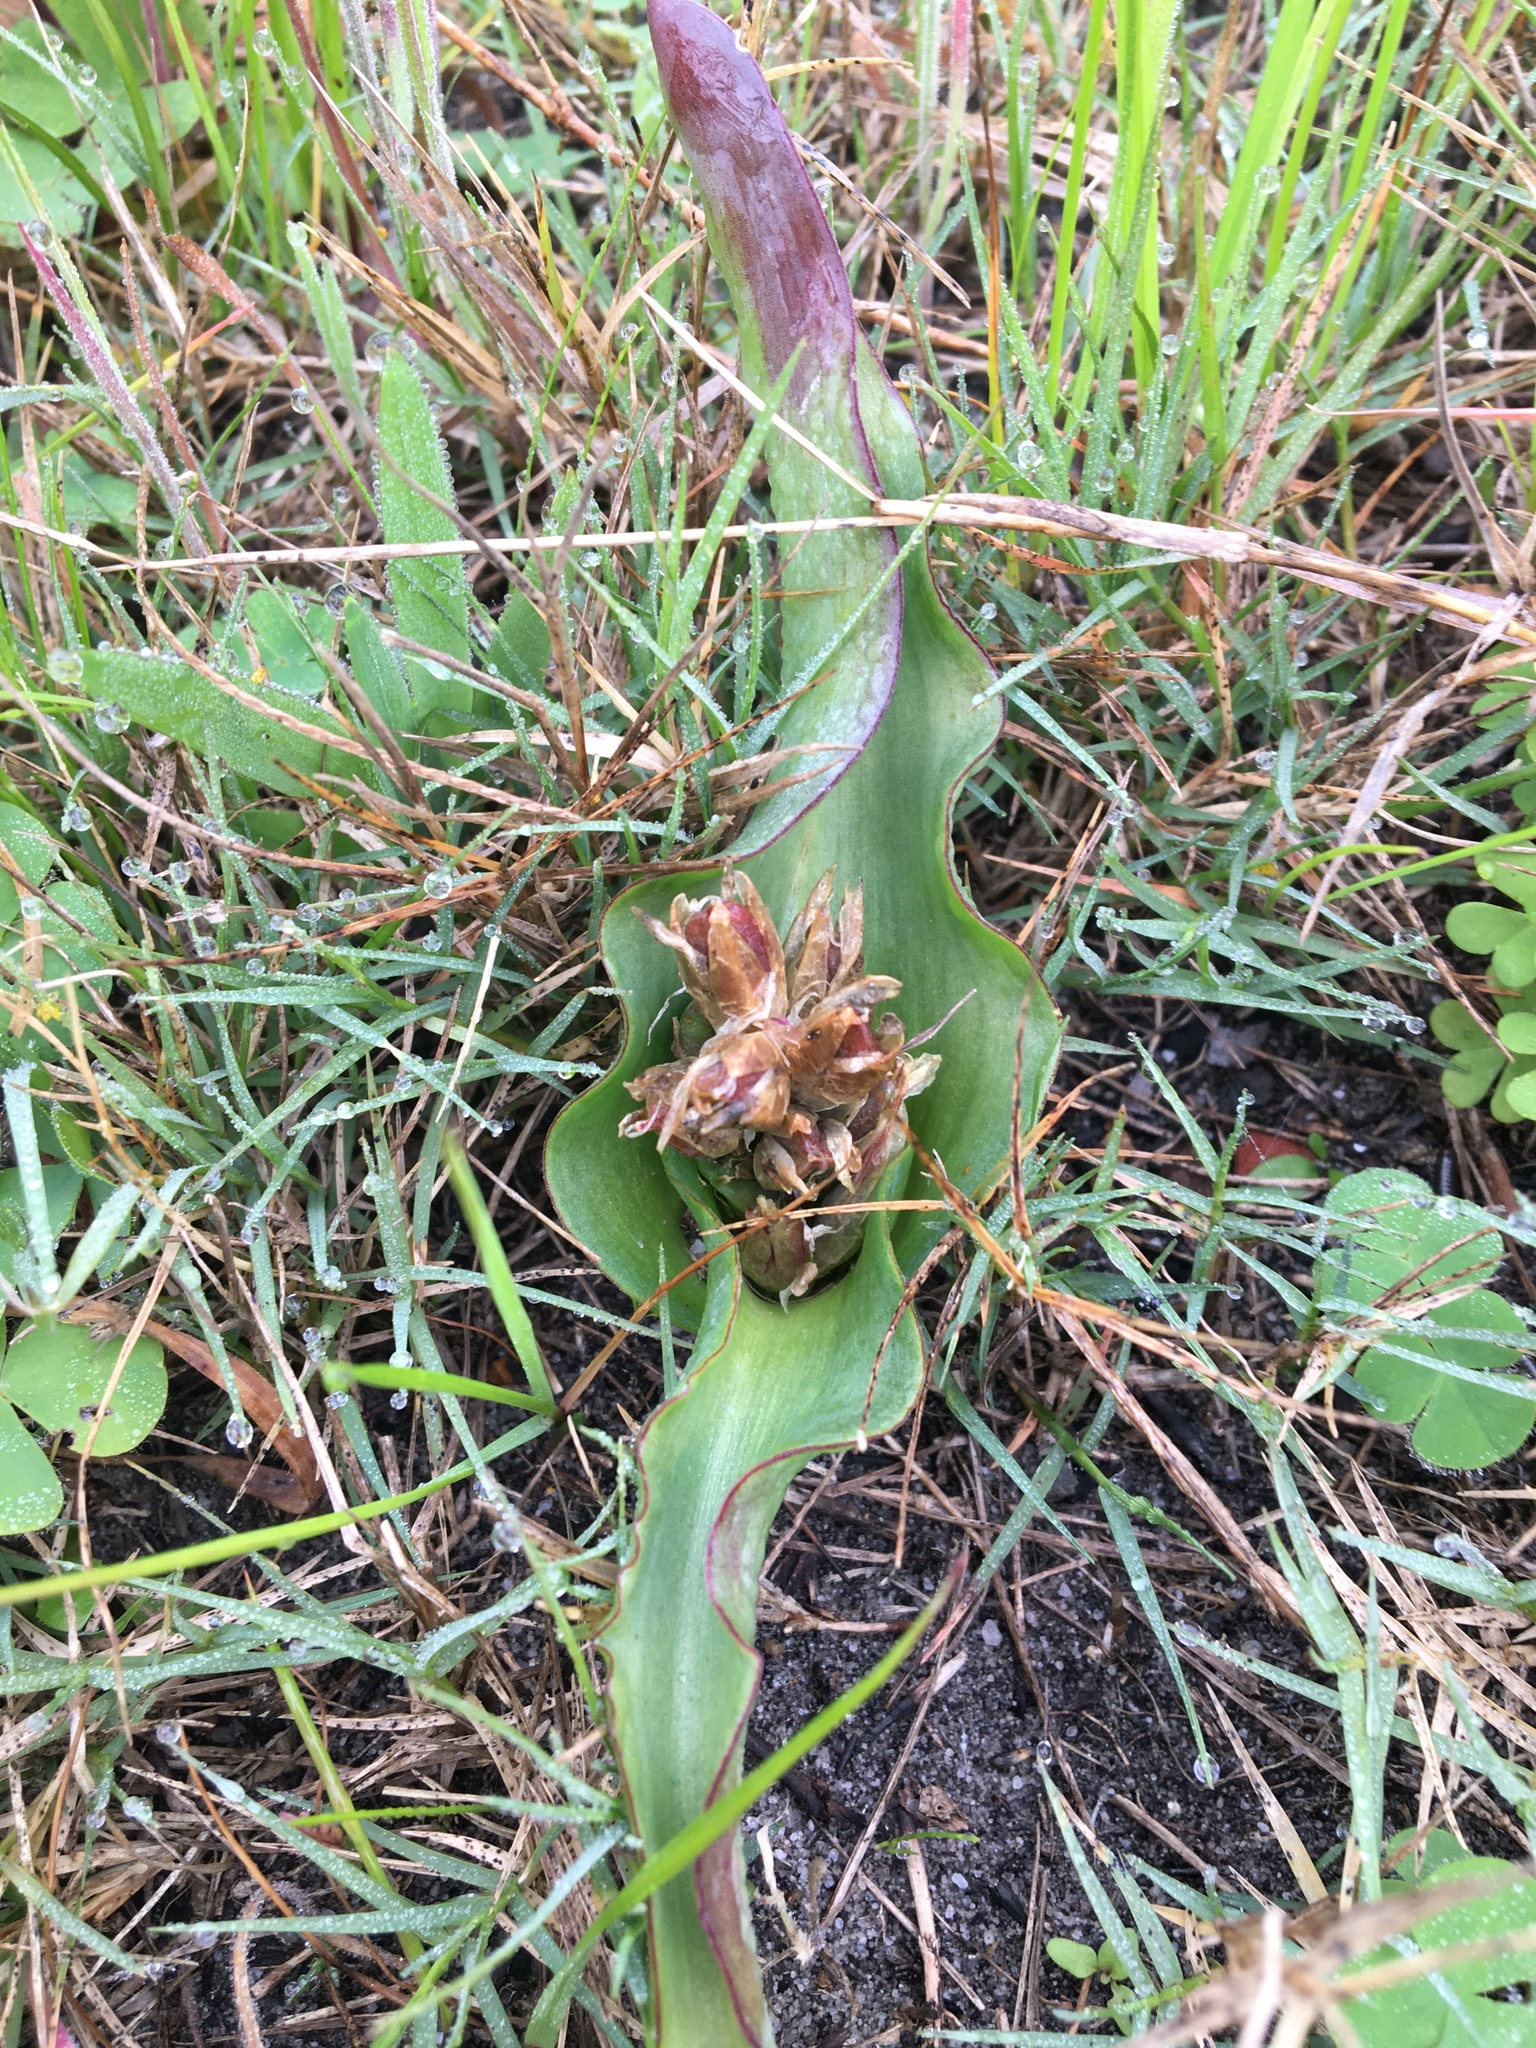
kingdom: Plantae
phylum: Tracheophyta
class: Liliopsida
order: Asparagales
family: Asparagaceae
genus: Lachenalia
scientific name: Lachenalia reflexa
